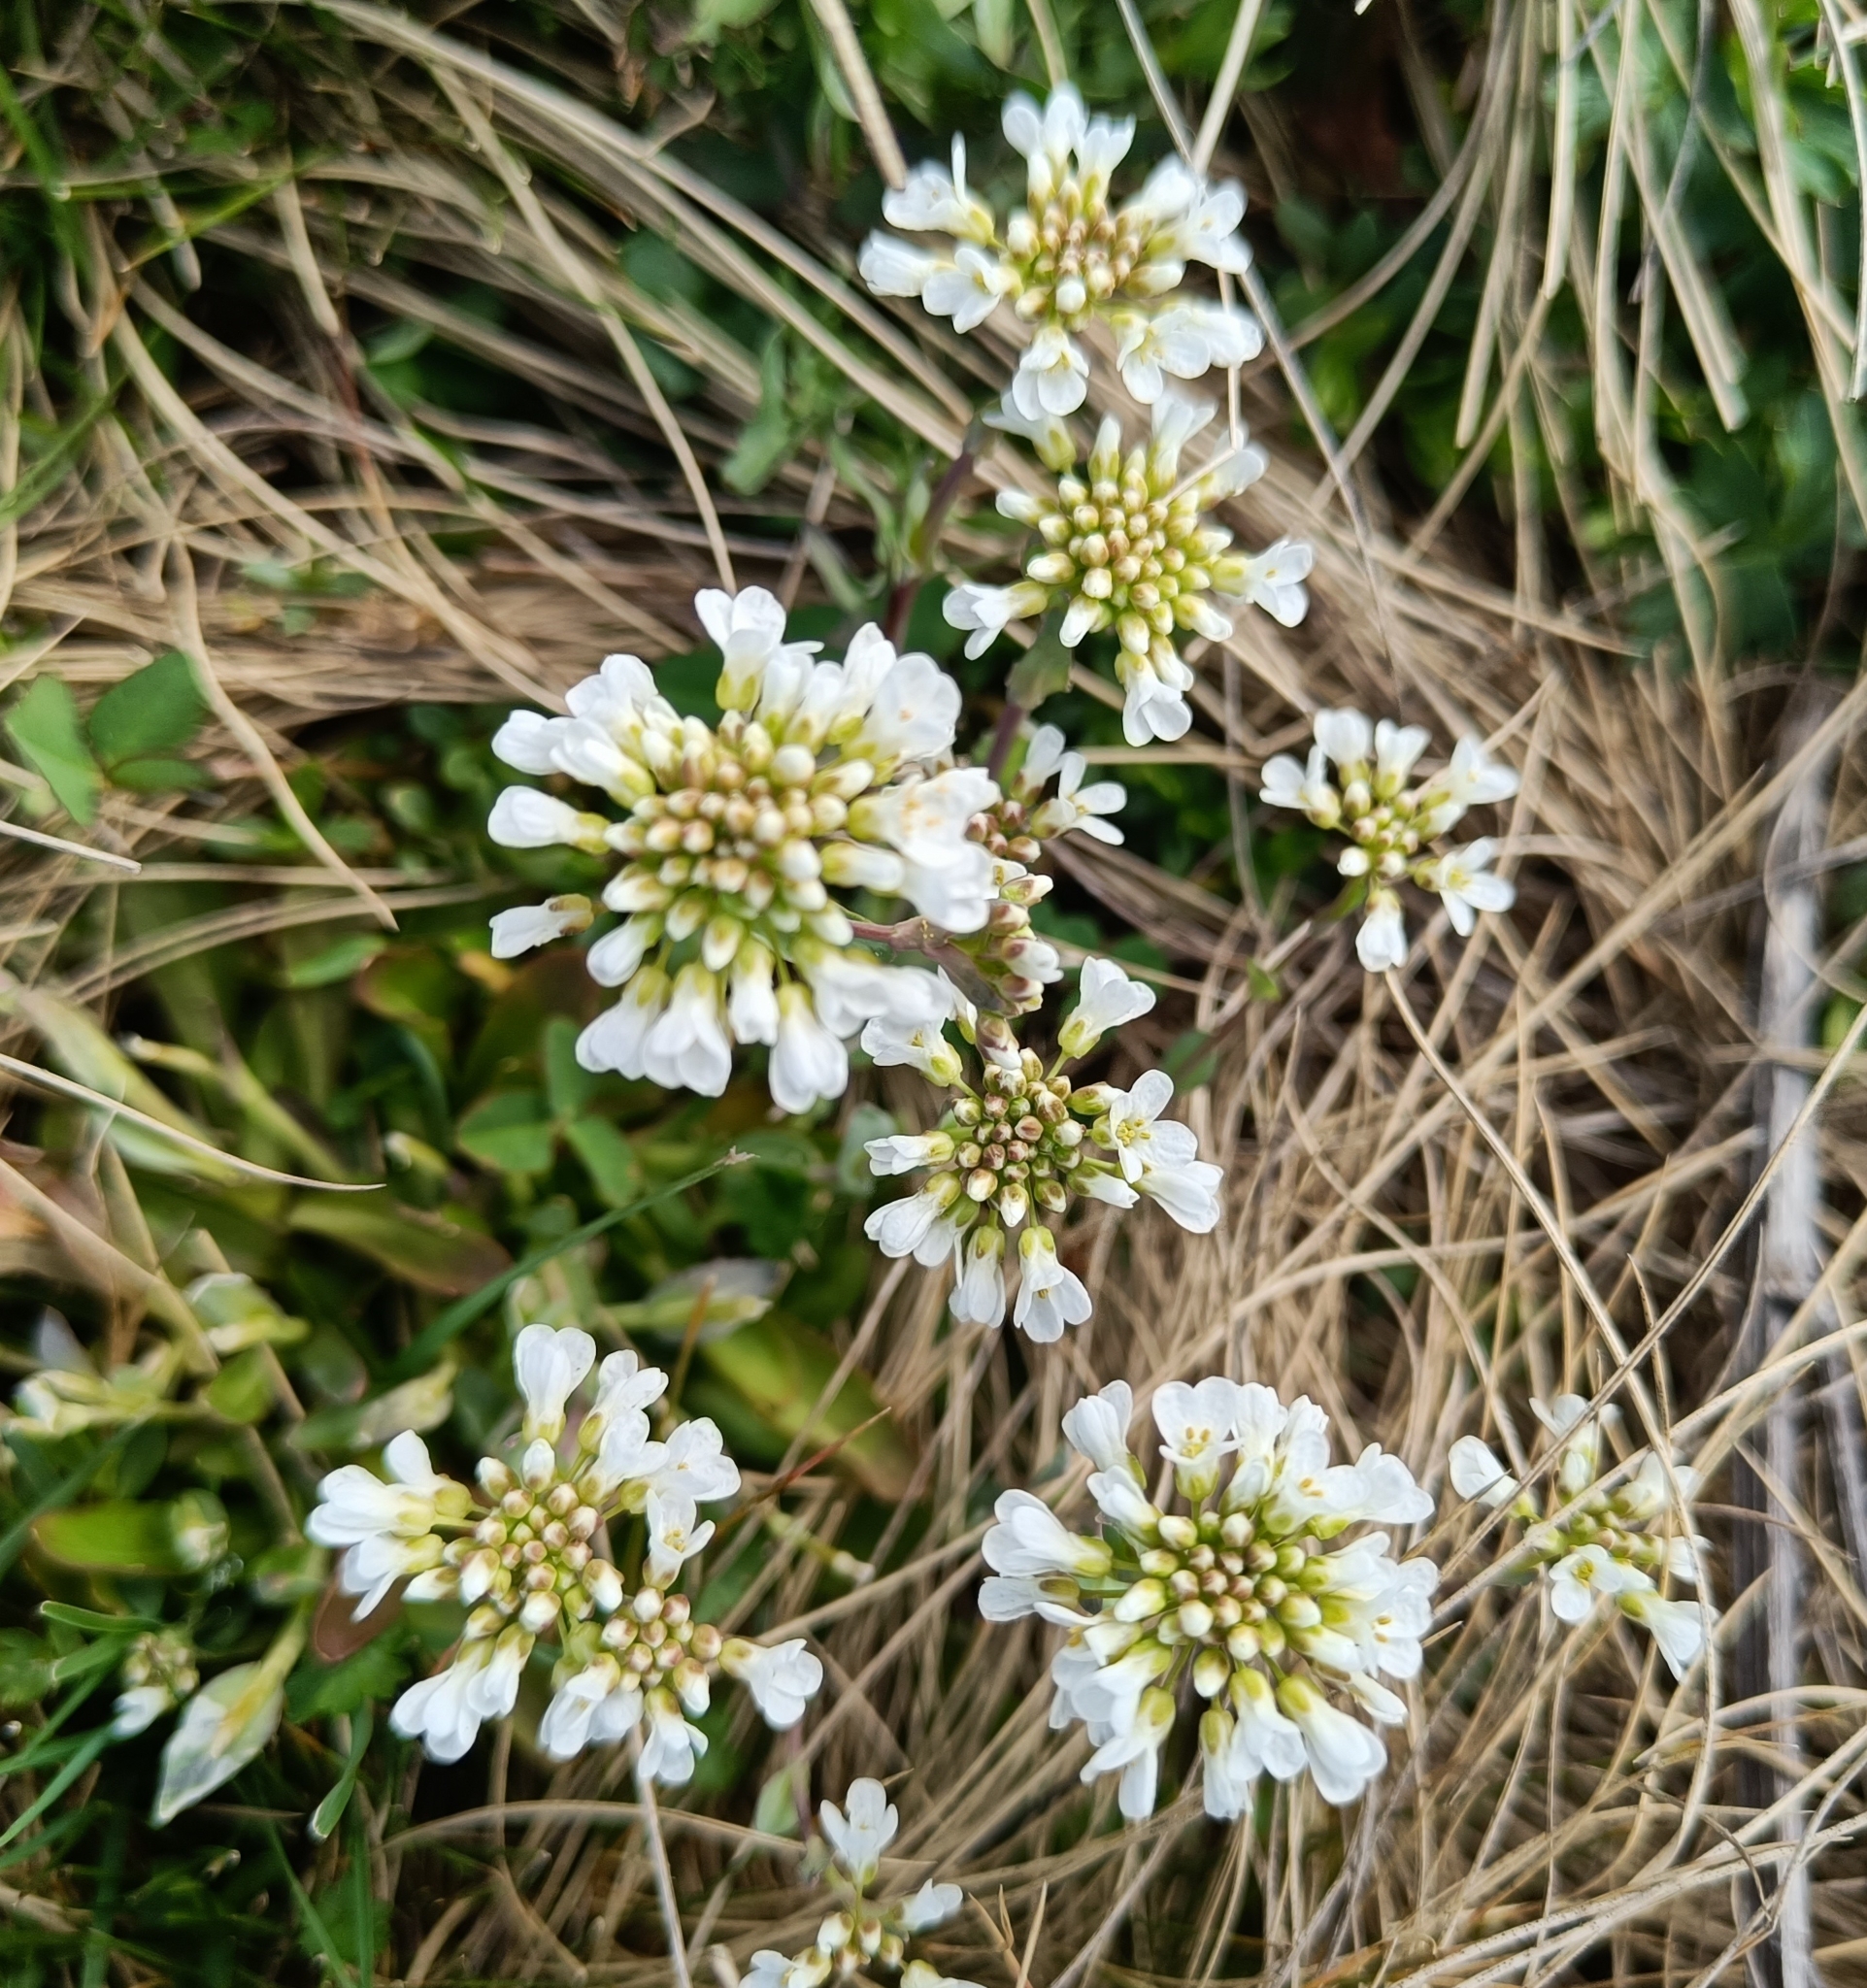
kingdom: Plantae
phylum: Tracheophyta
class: Magnoliopsida
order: Brassicales
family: Brassicaceae
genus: Noccaea
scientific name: Noccaea montana
